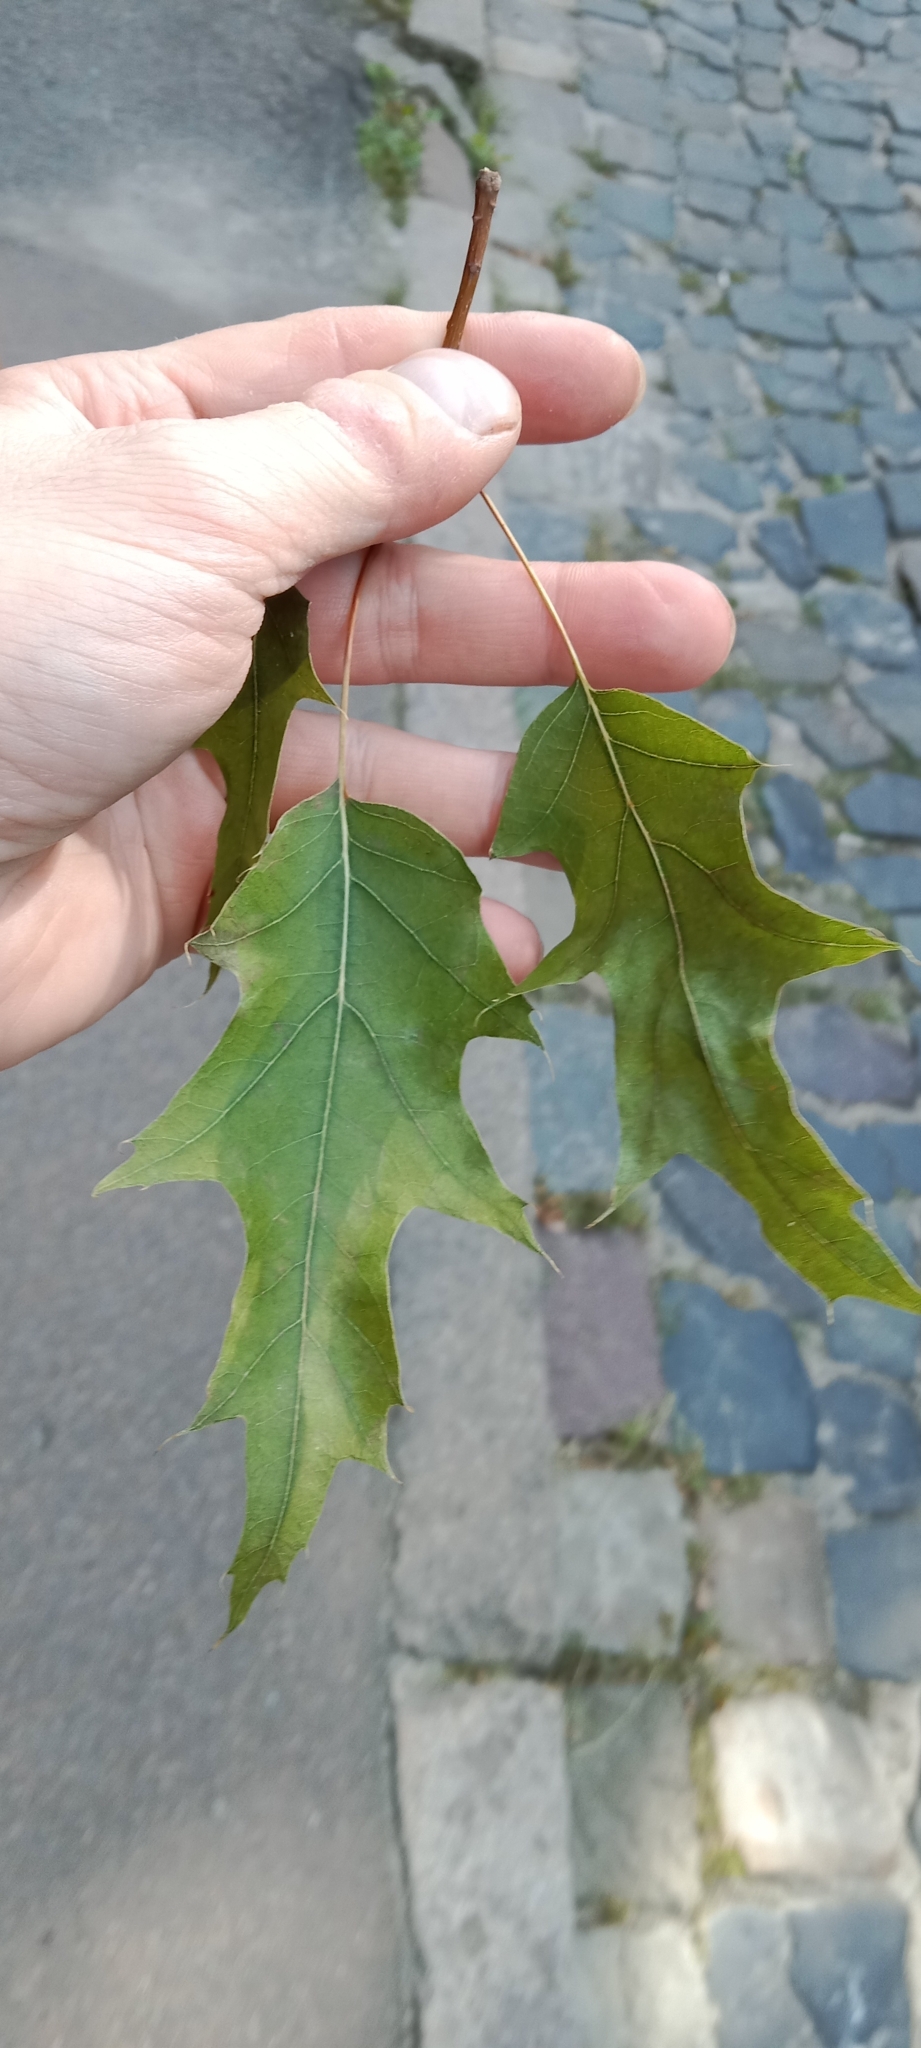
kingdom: Plantae
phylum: Tracheophyta
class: Magnoliopsida
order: Fagales
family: Fagaceae
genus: Quercus
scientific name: Quercus rubra
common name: Red oak
